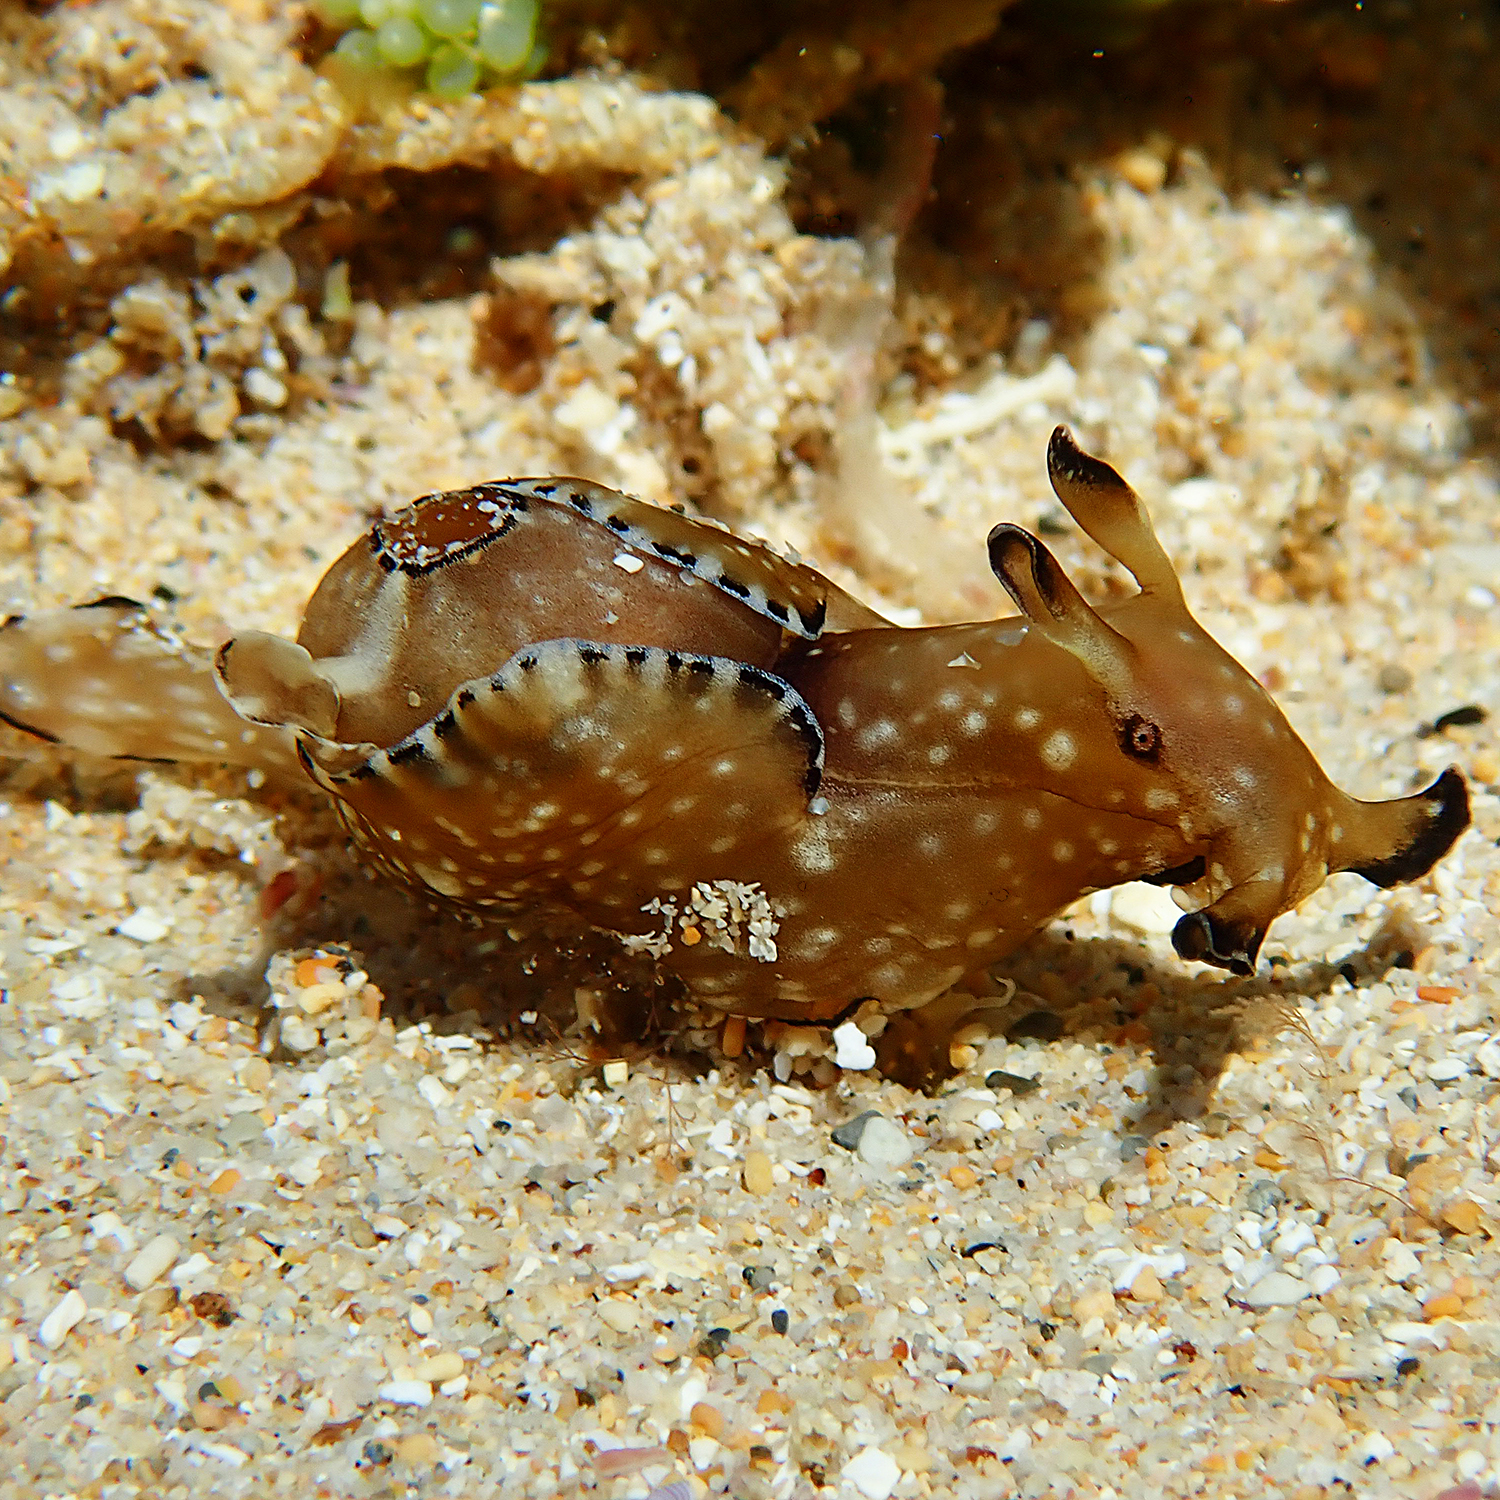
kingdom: Animalia
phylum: Mollusca
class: Gastropoda
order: Aplysiida
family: Aplysiidae
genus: Aplysia
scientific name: Aplysia concava
